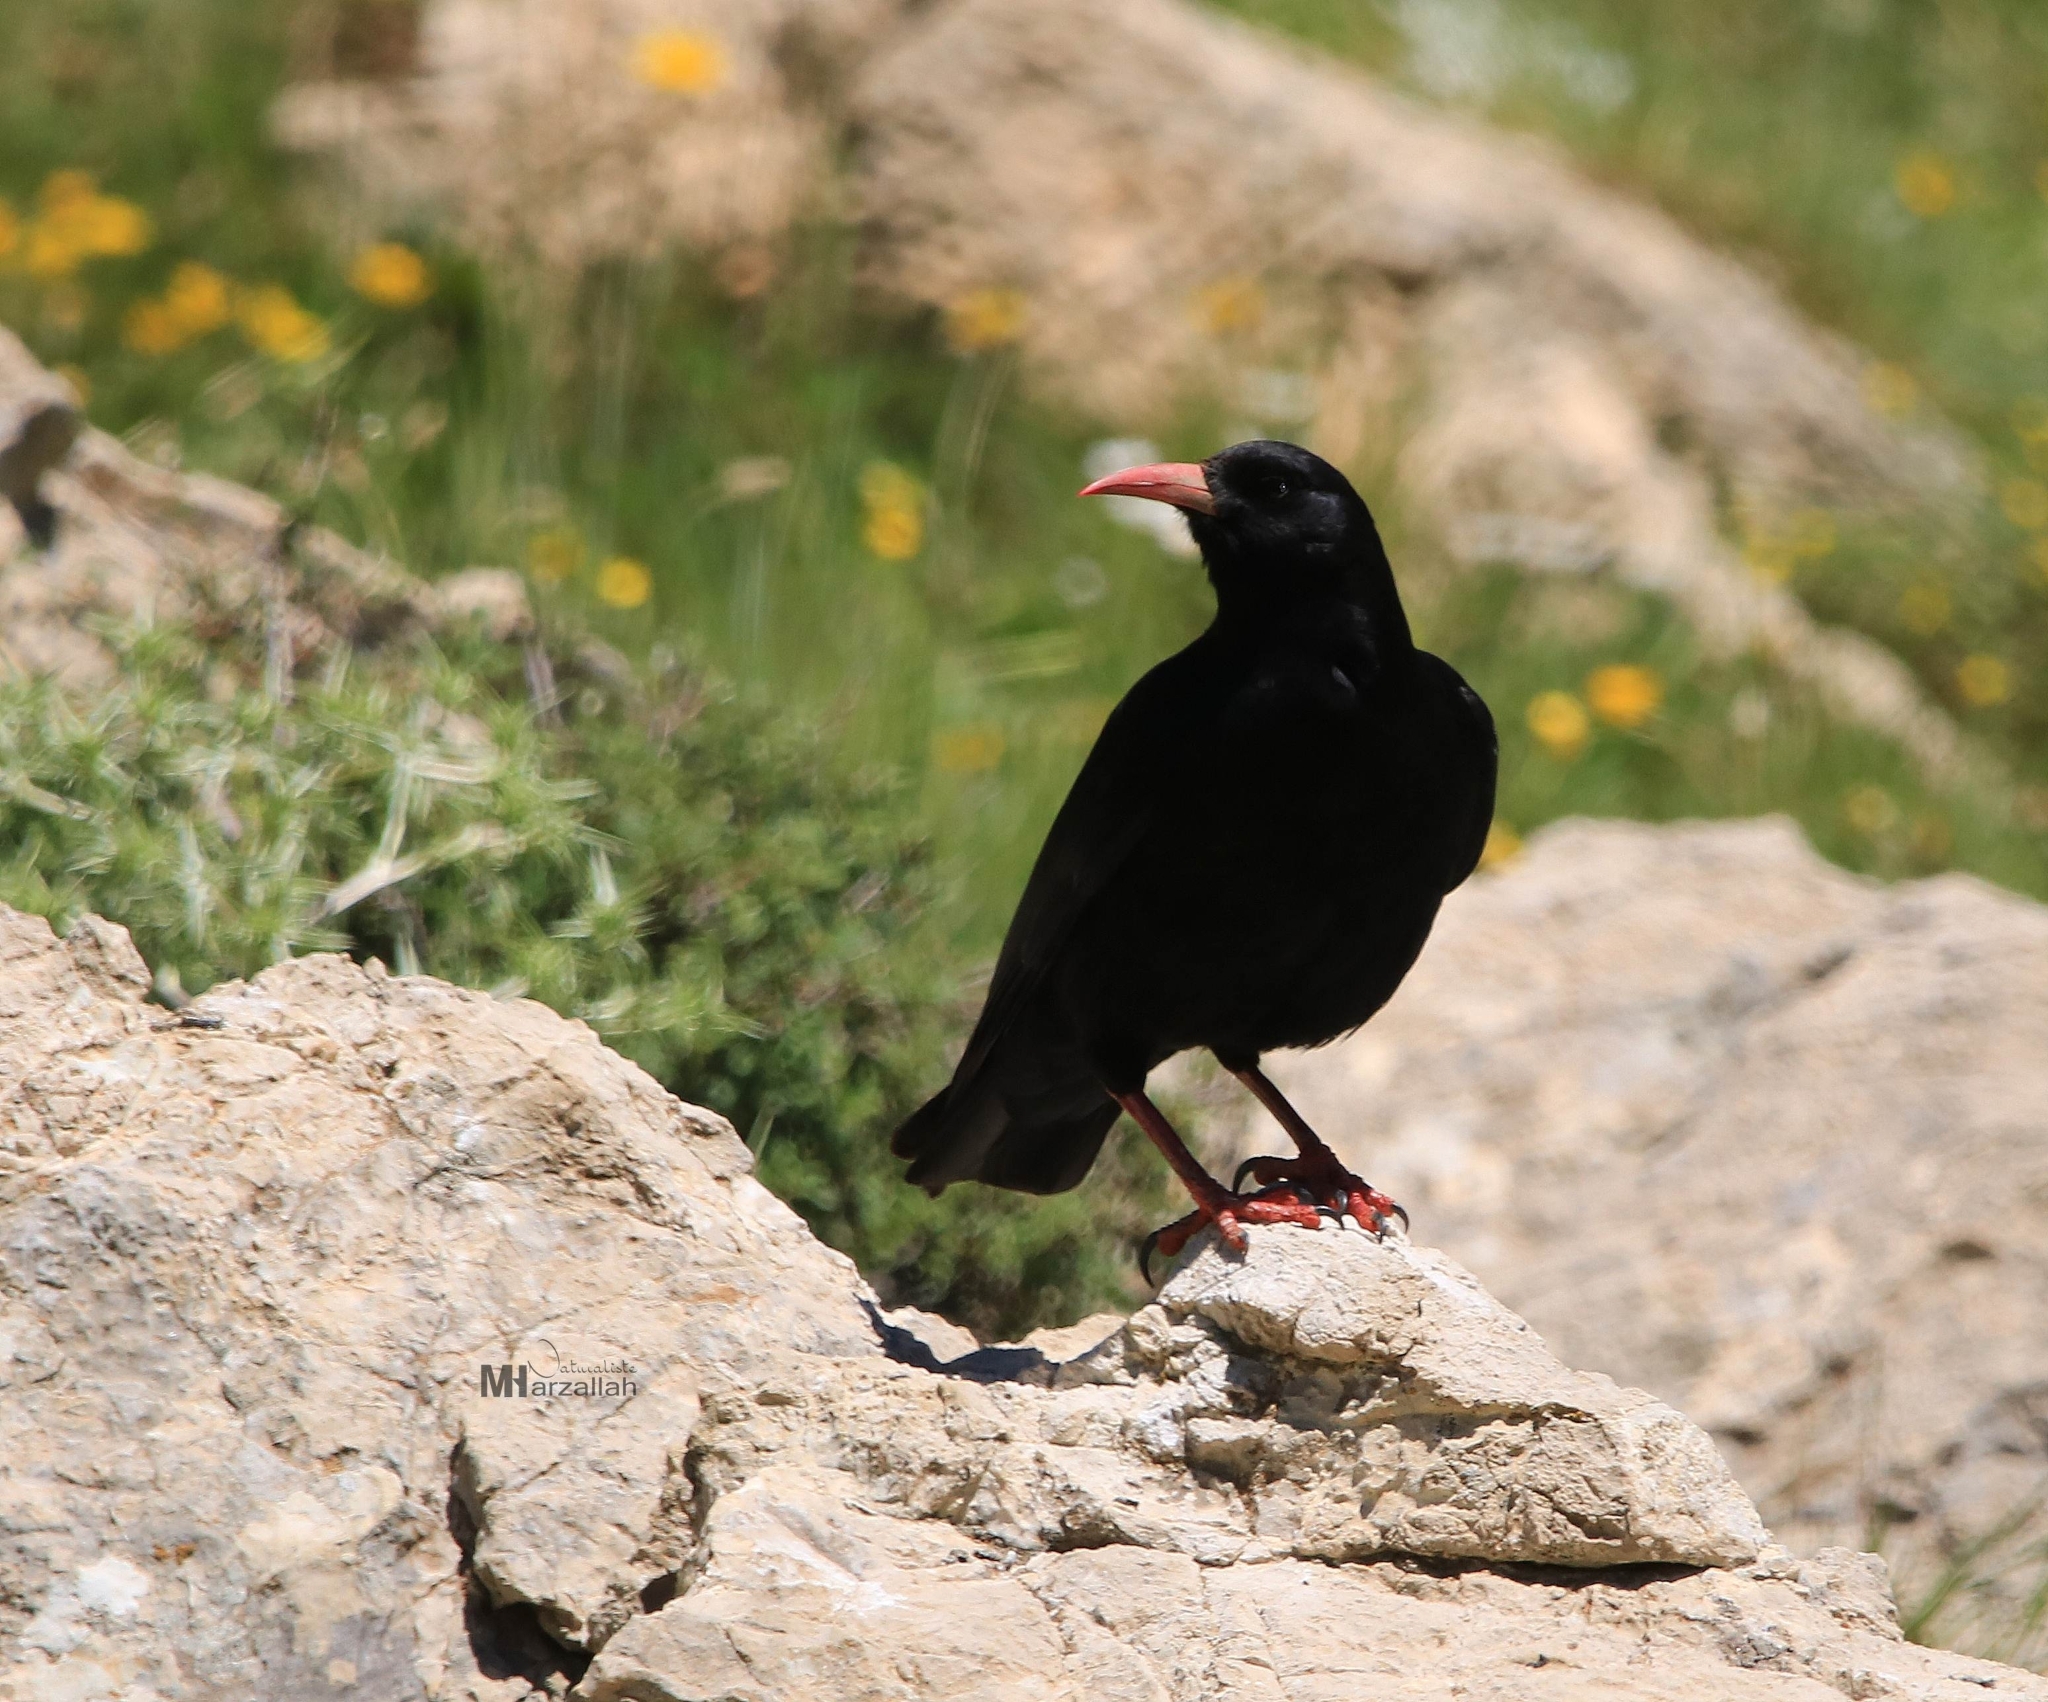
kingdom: Animalia
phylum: Chordata
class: Aves
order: Passeriformes
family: Corvidae
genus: Pyrrhocorax
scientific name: Pyrrhocorax pyrrhocorax
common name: Red-billed chough
